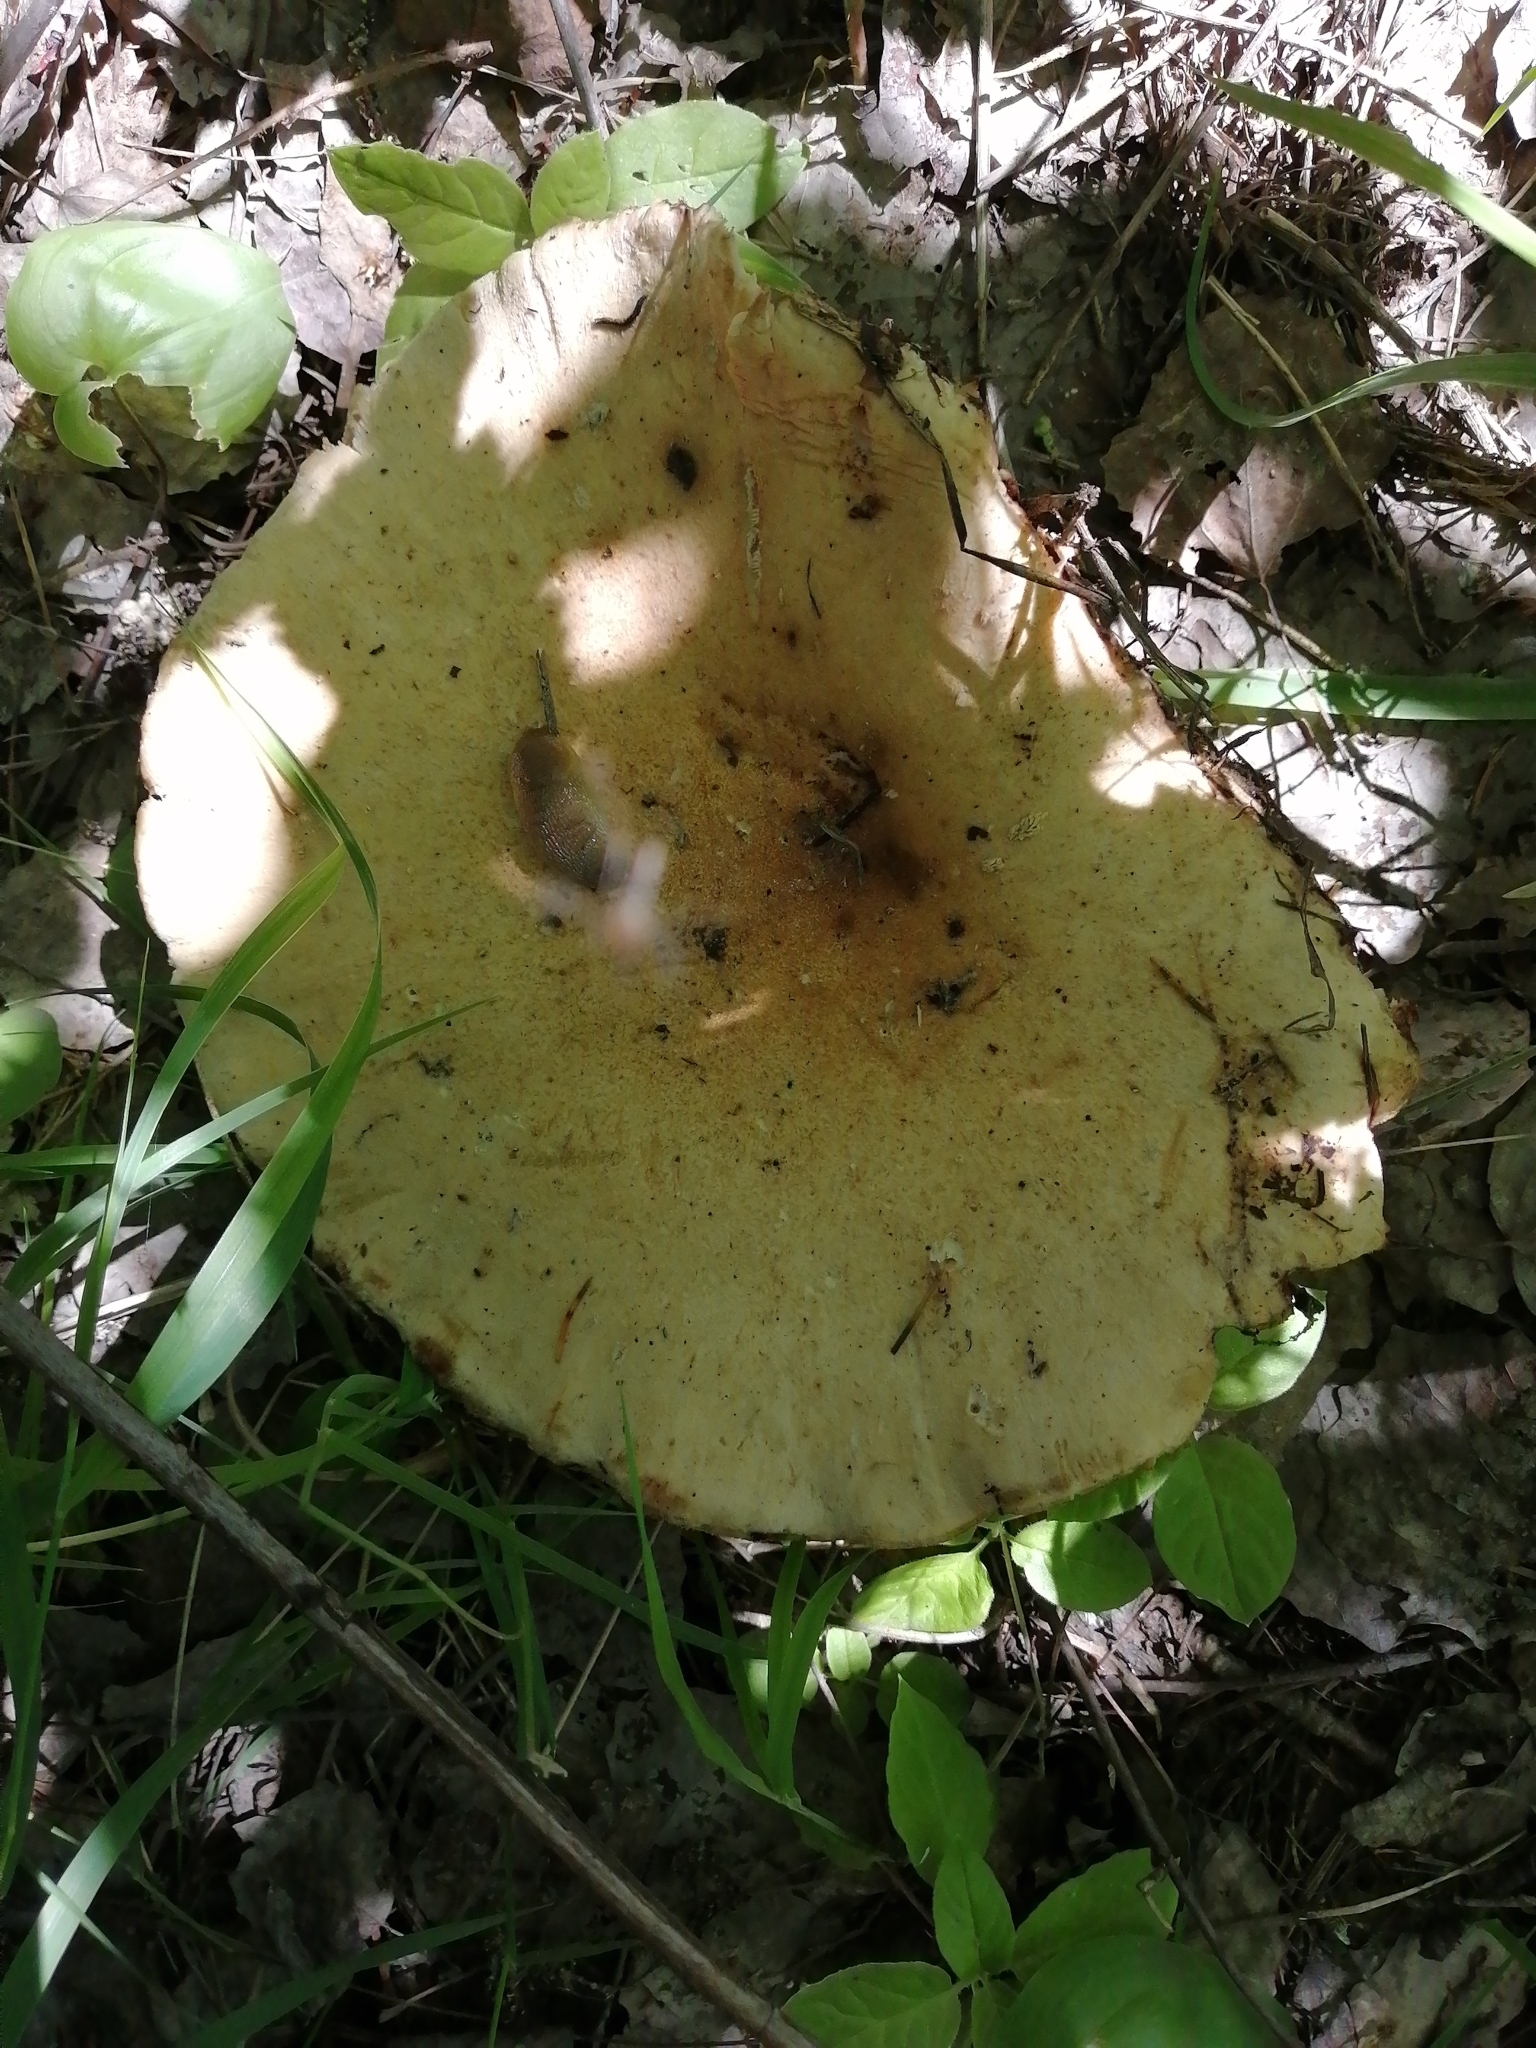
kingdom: Fungi
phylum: Basidiomycota
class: Agaricomycetes
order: Gloeophyllales
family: Gloeophyllaceae
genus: Neolentinus
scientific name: Neolentinus cyathiformis
